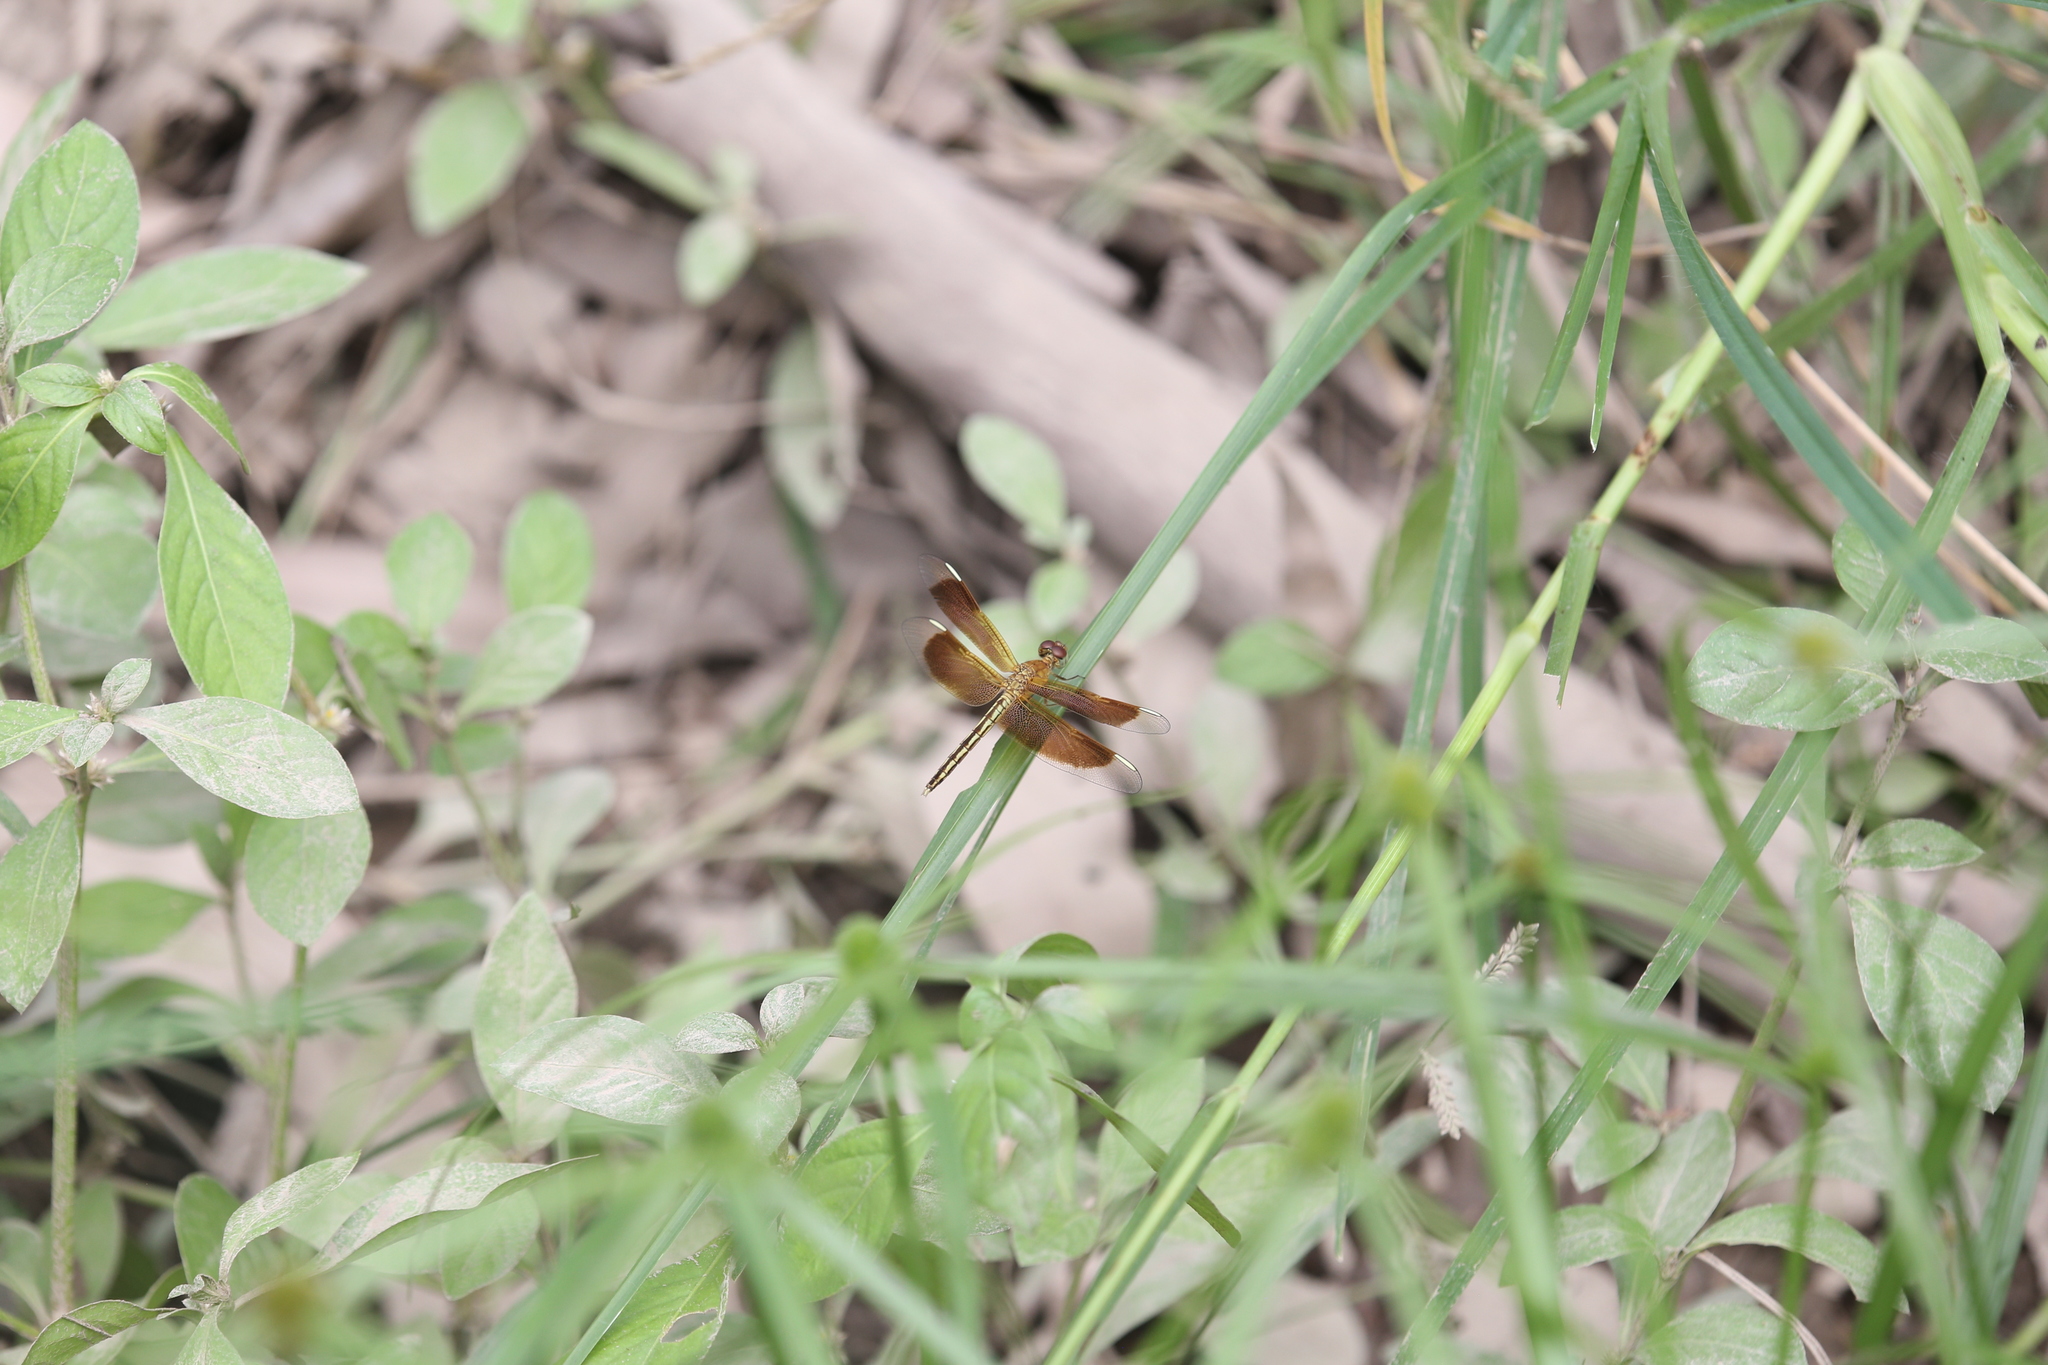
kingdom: Animalia
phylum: Arthropoda
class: Insecta
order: Odonata
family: Libellulidae
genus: Neurothemis
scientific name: Neurothemis stigmatizans
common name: Painted grasshawk
